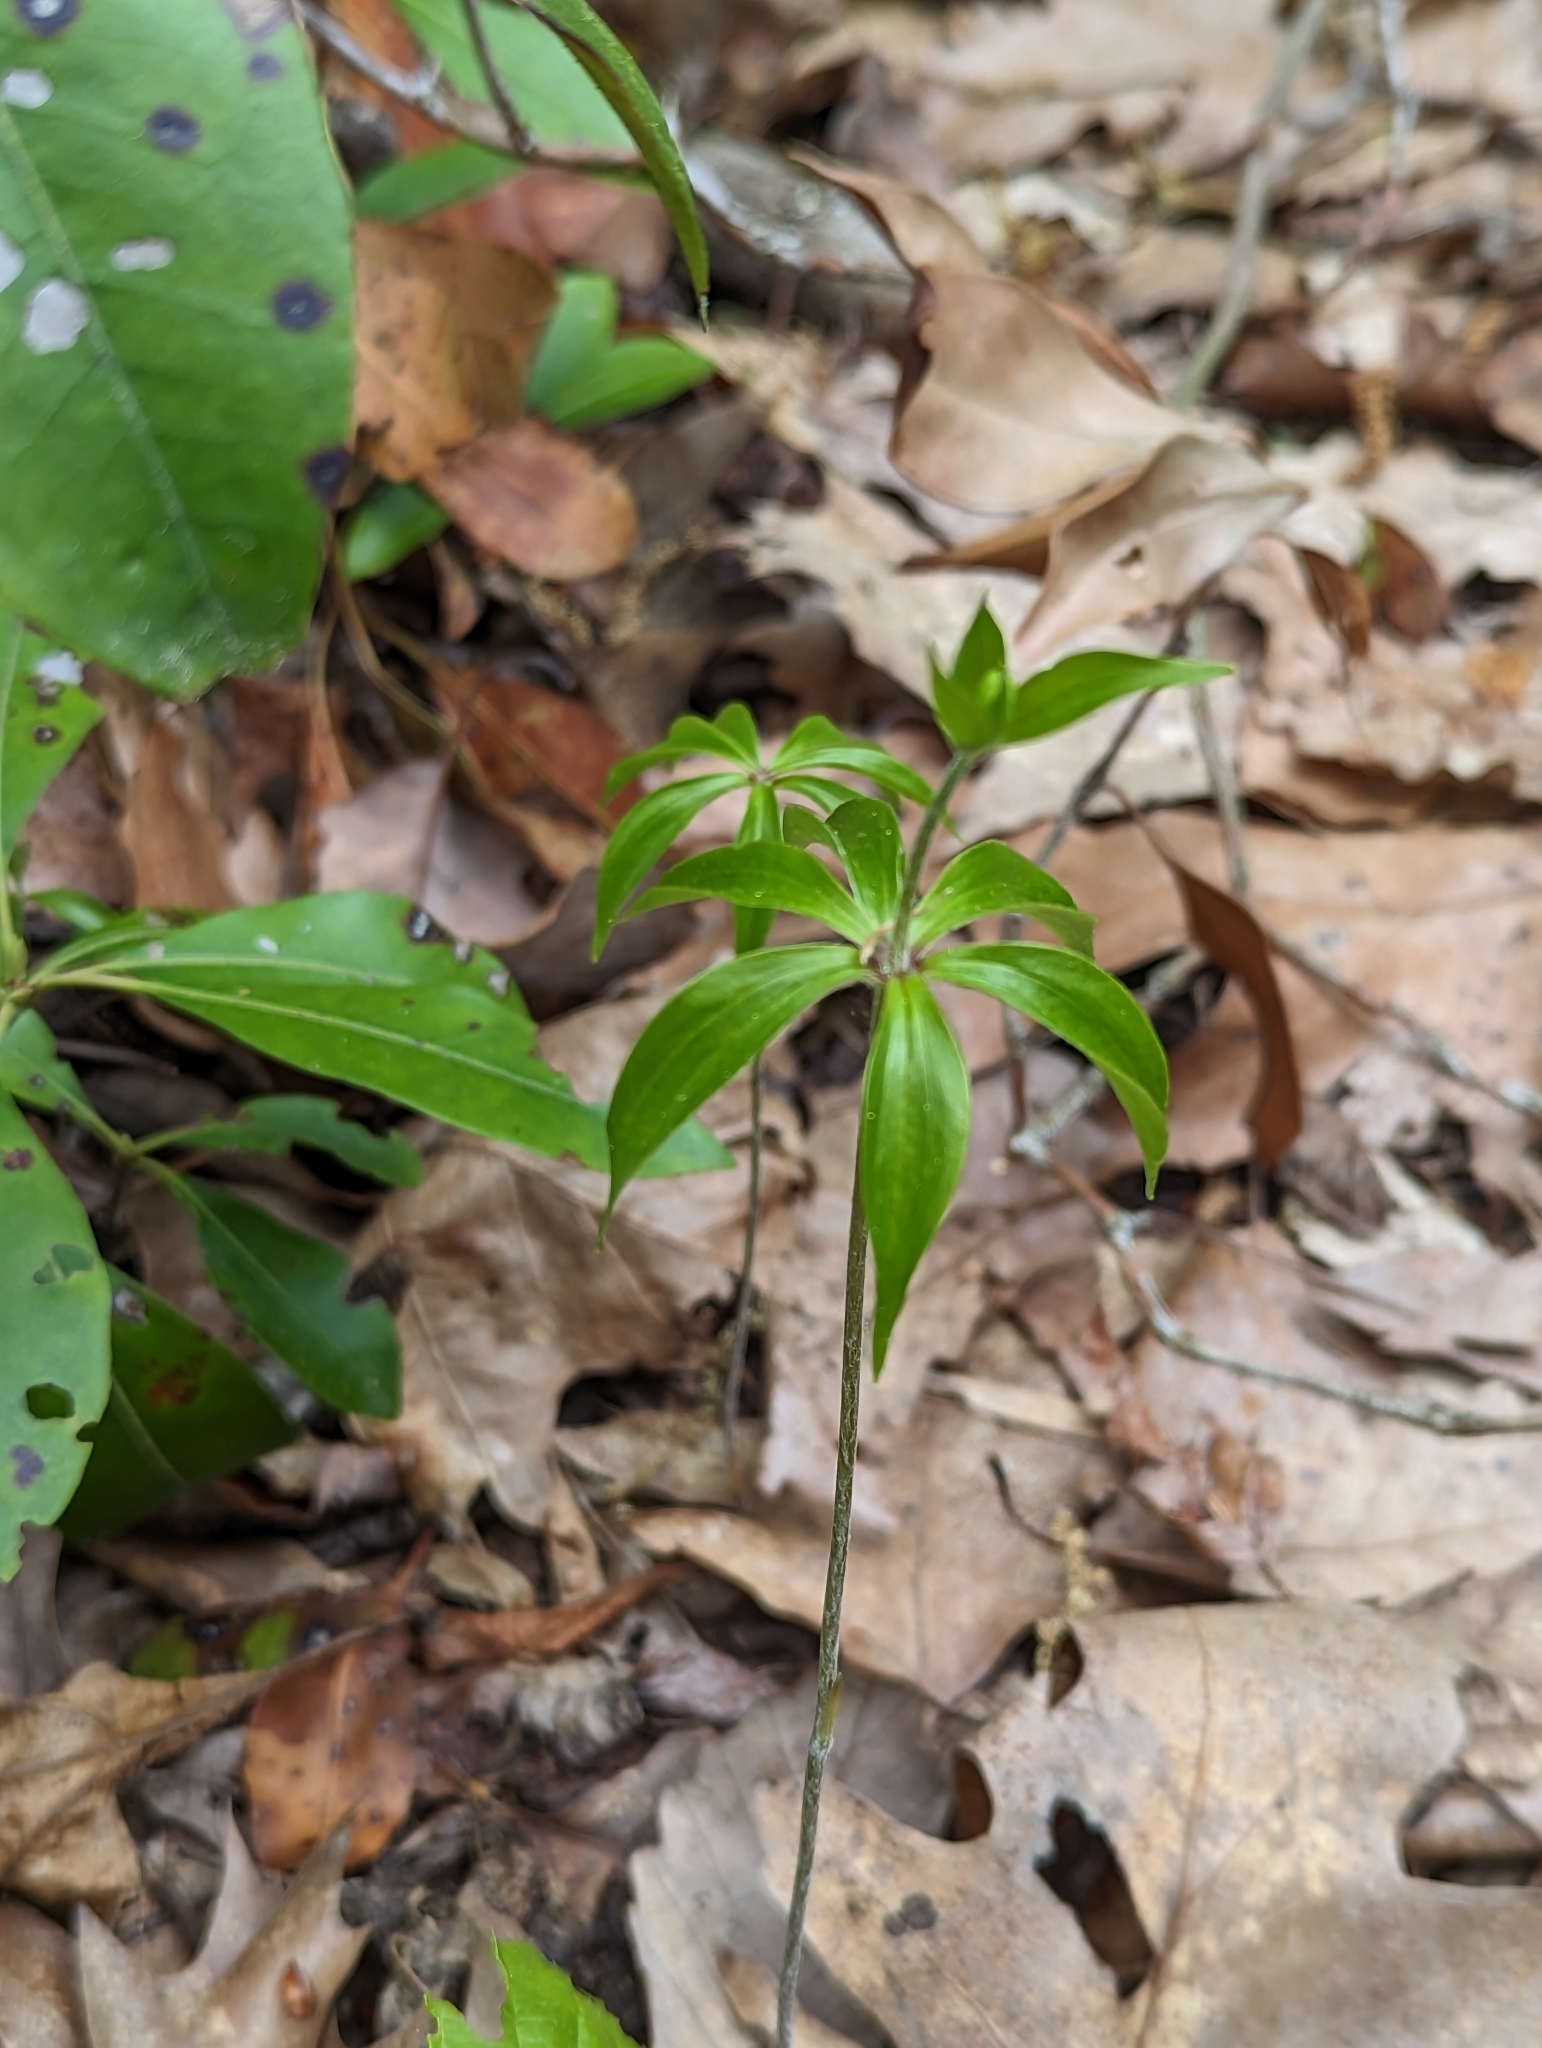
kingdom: Plantae
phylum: Tracheophyta
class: Liliopsida
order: Liliales
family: Liliaceae
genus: Medeola
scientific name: Medeola virginiana
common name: Indian cucumber-root
